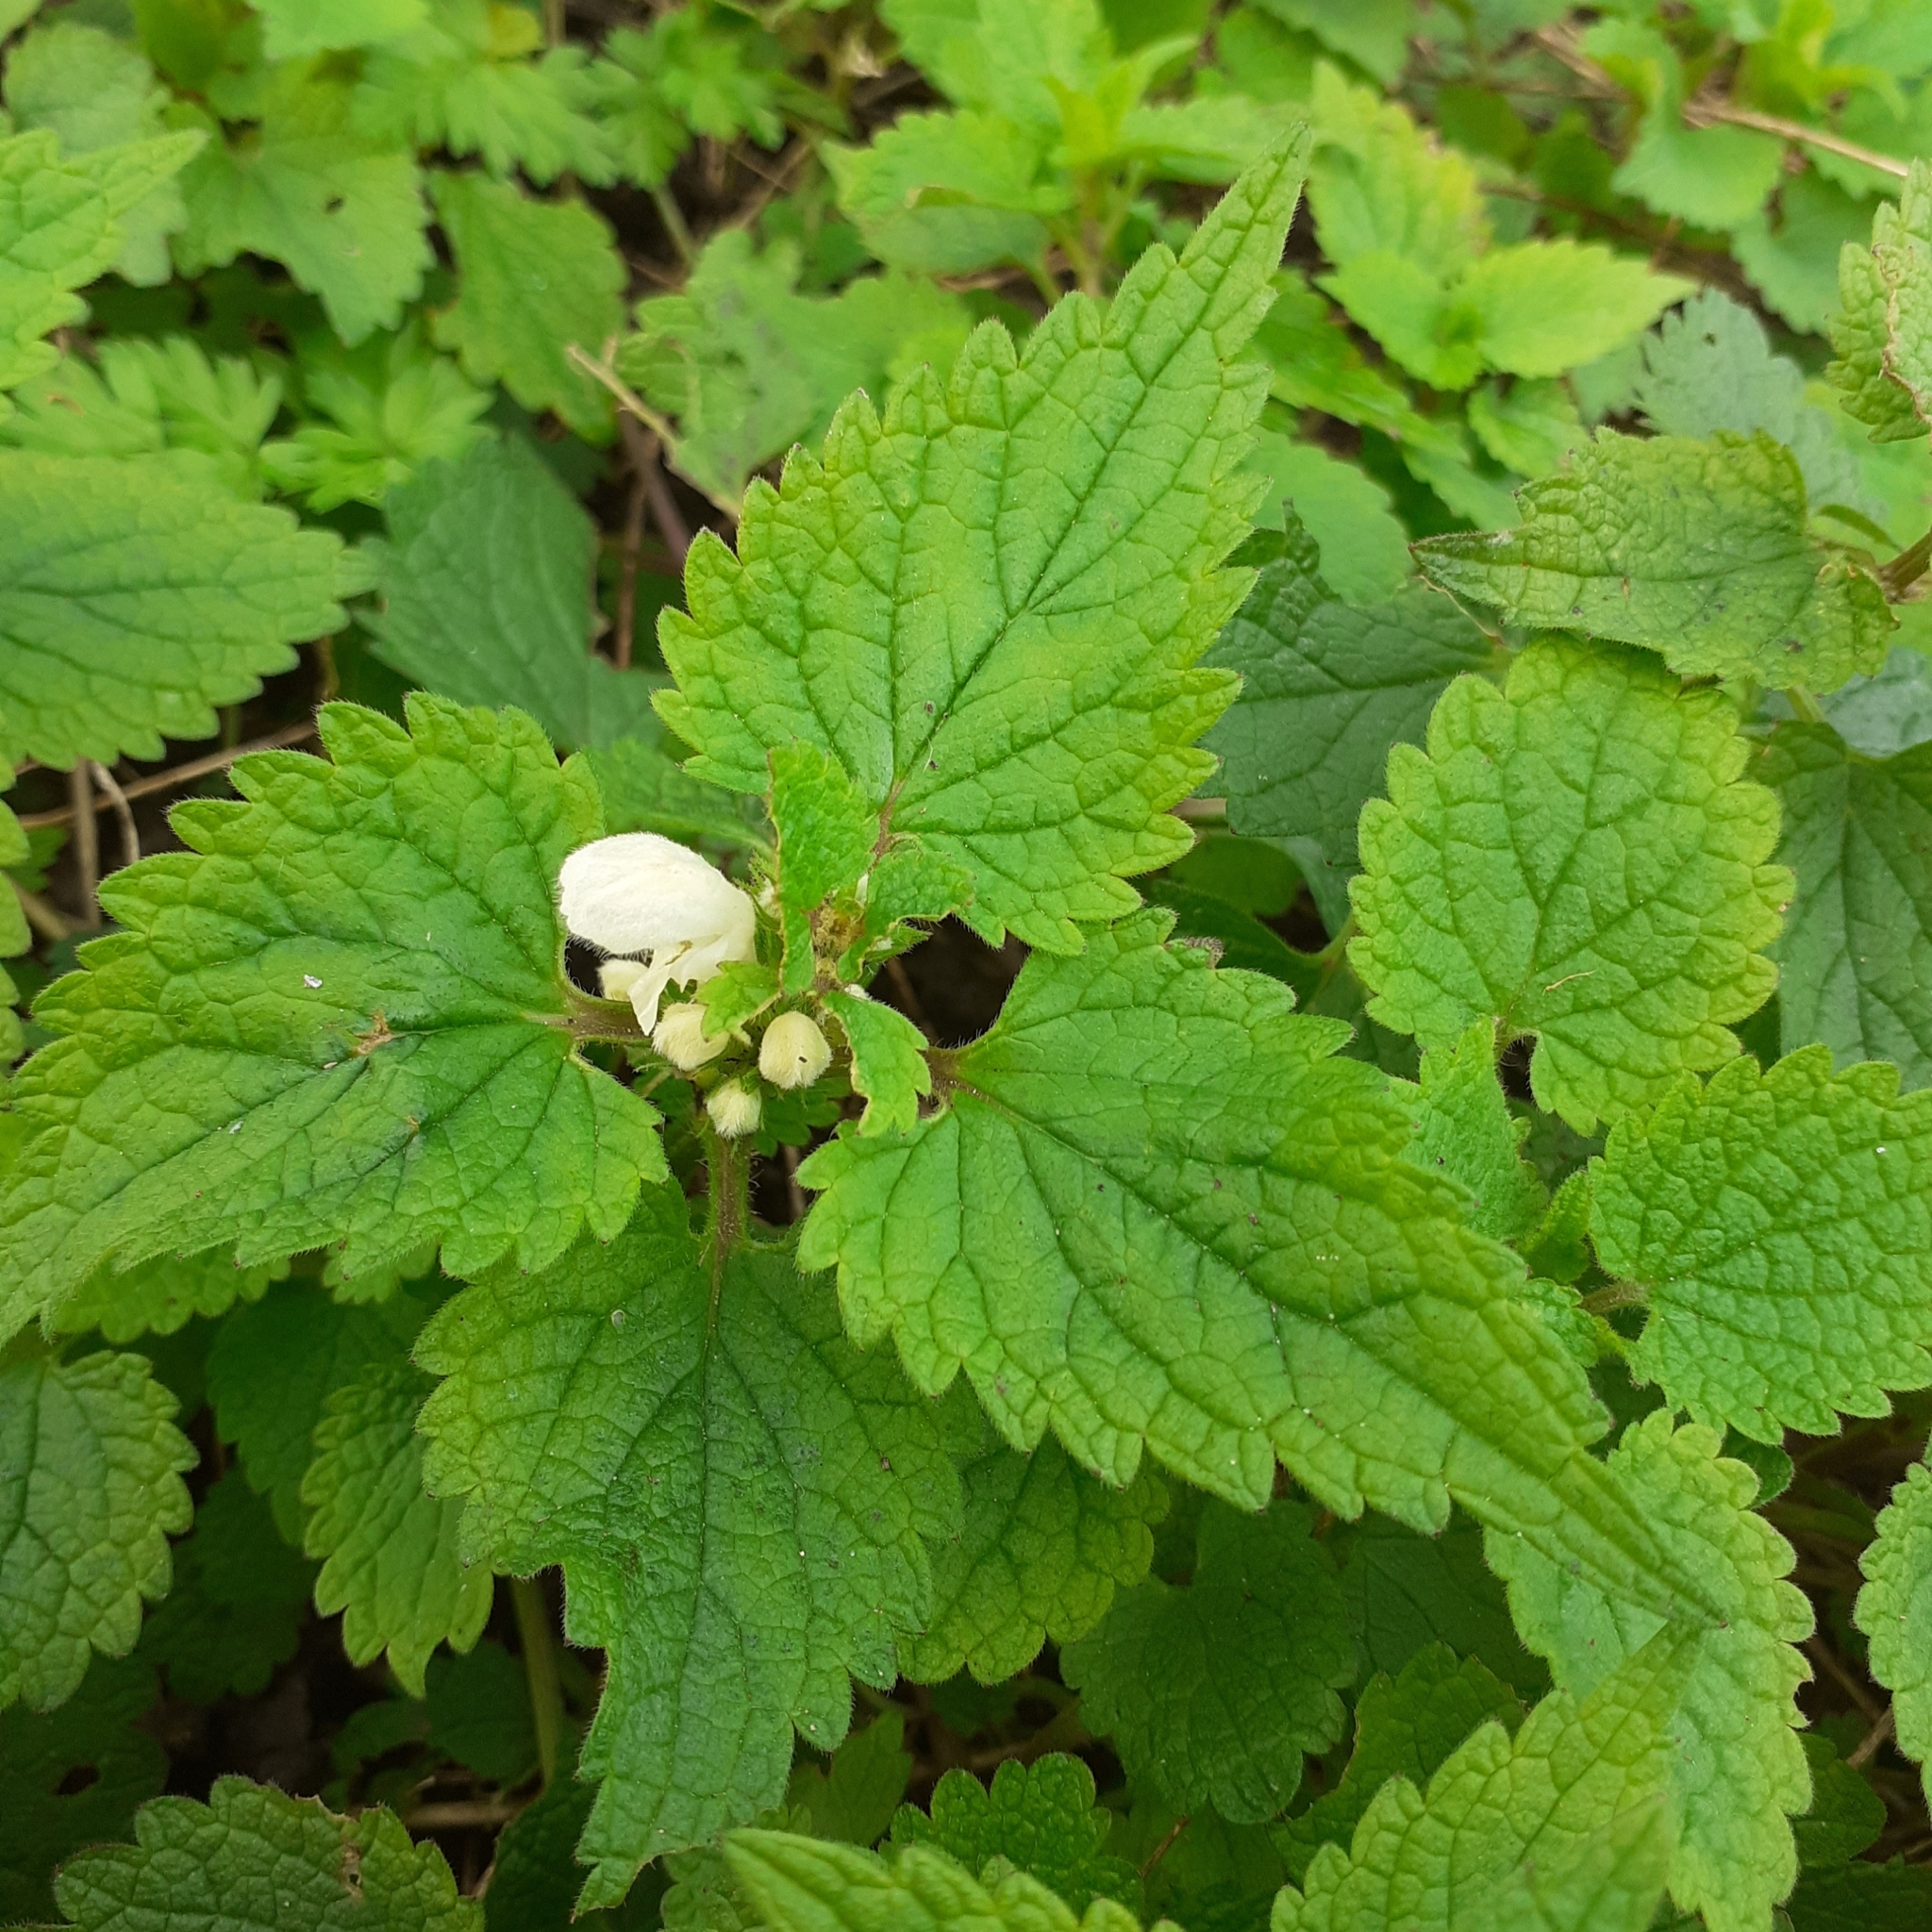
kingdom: Plantae
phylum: Tracheophyta
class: Magnoliopsida
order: Lamiales
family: Lamiaceae
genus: Lamium
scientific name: Lamium album
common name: White dead-nettle
